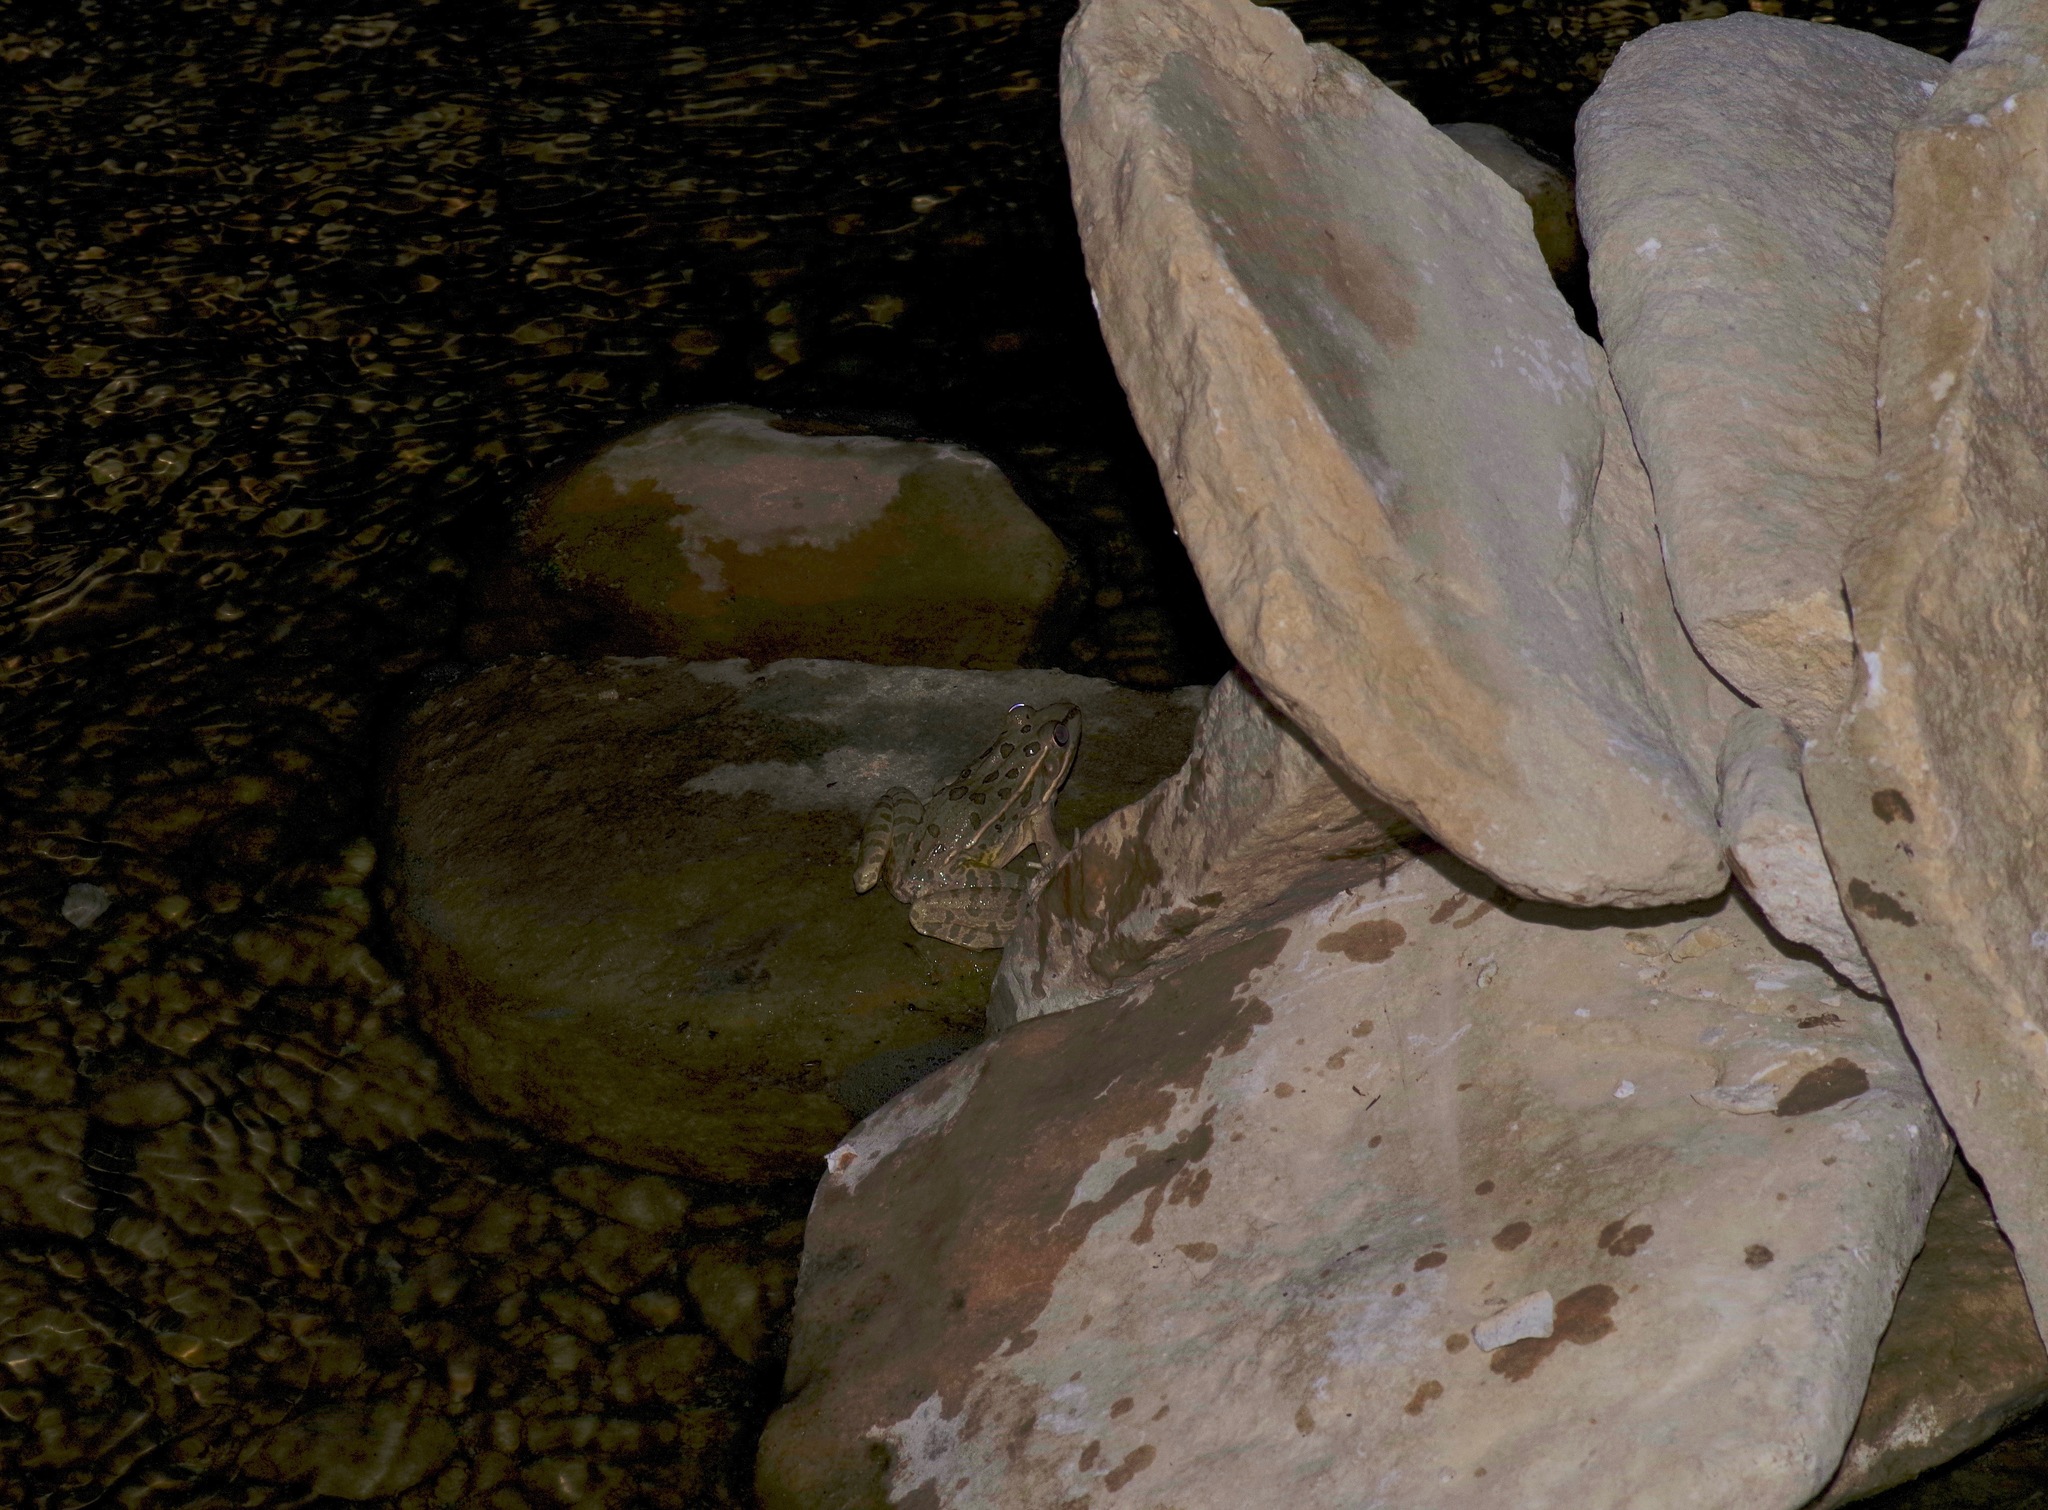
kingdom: Animalia
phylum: Chordata
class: Amphibia
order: Anura
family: Ranidae
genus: Lithobates
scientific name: Lithobates berlandieri
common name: Rio grande leopard frog
